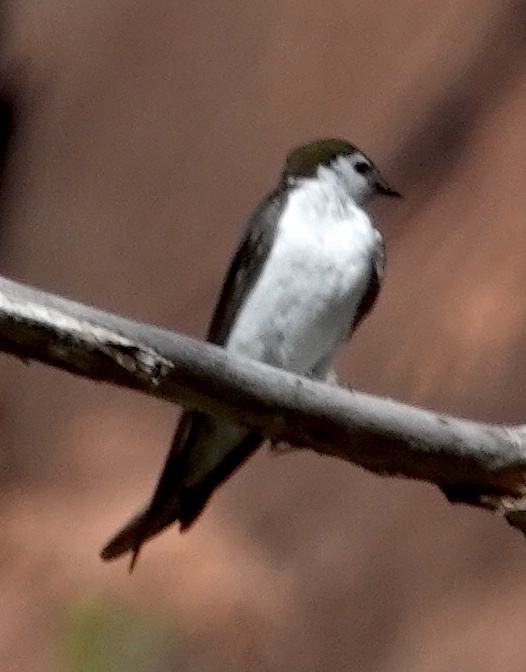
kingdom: Animalia
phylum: Chordata
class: Aves
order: Passeriformes
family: Hirundinidae
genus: Tachycineta
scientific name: Tachycineta thalassina
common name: Violet-green swallow
